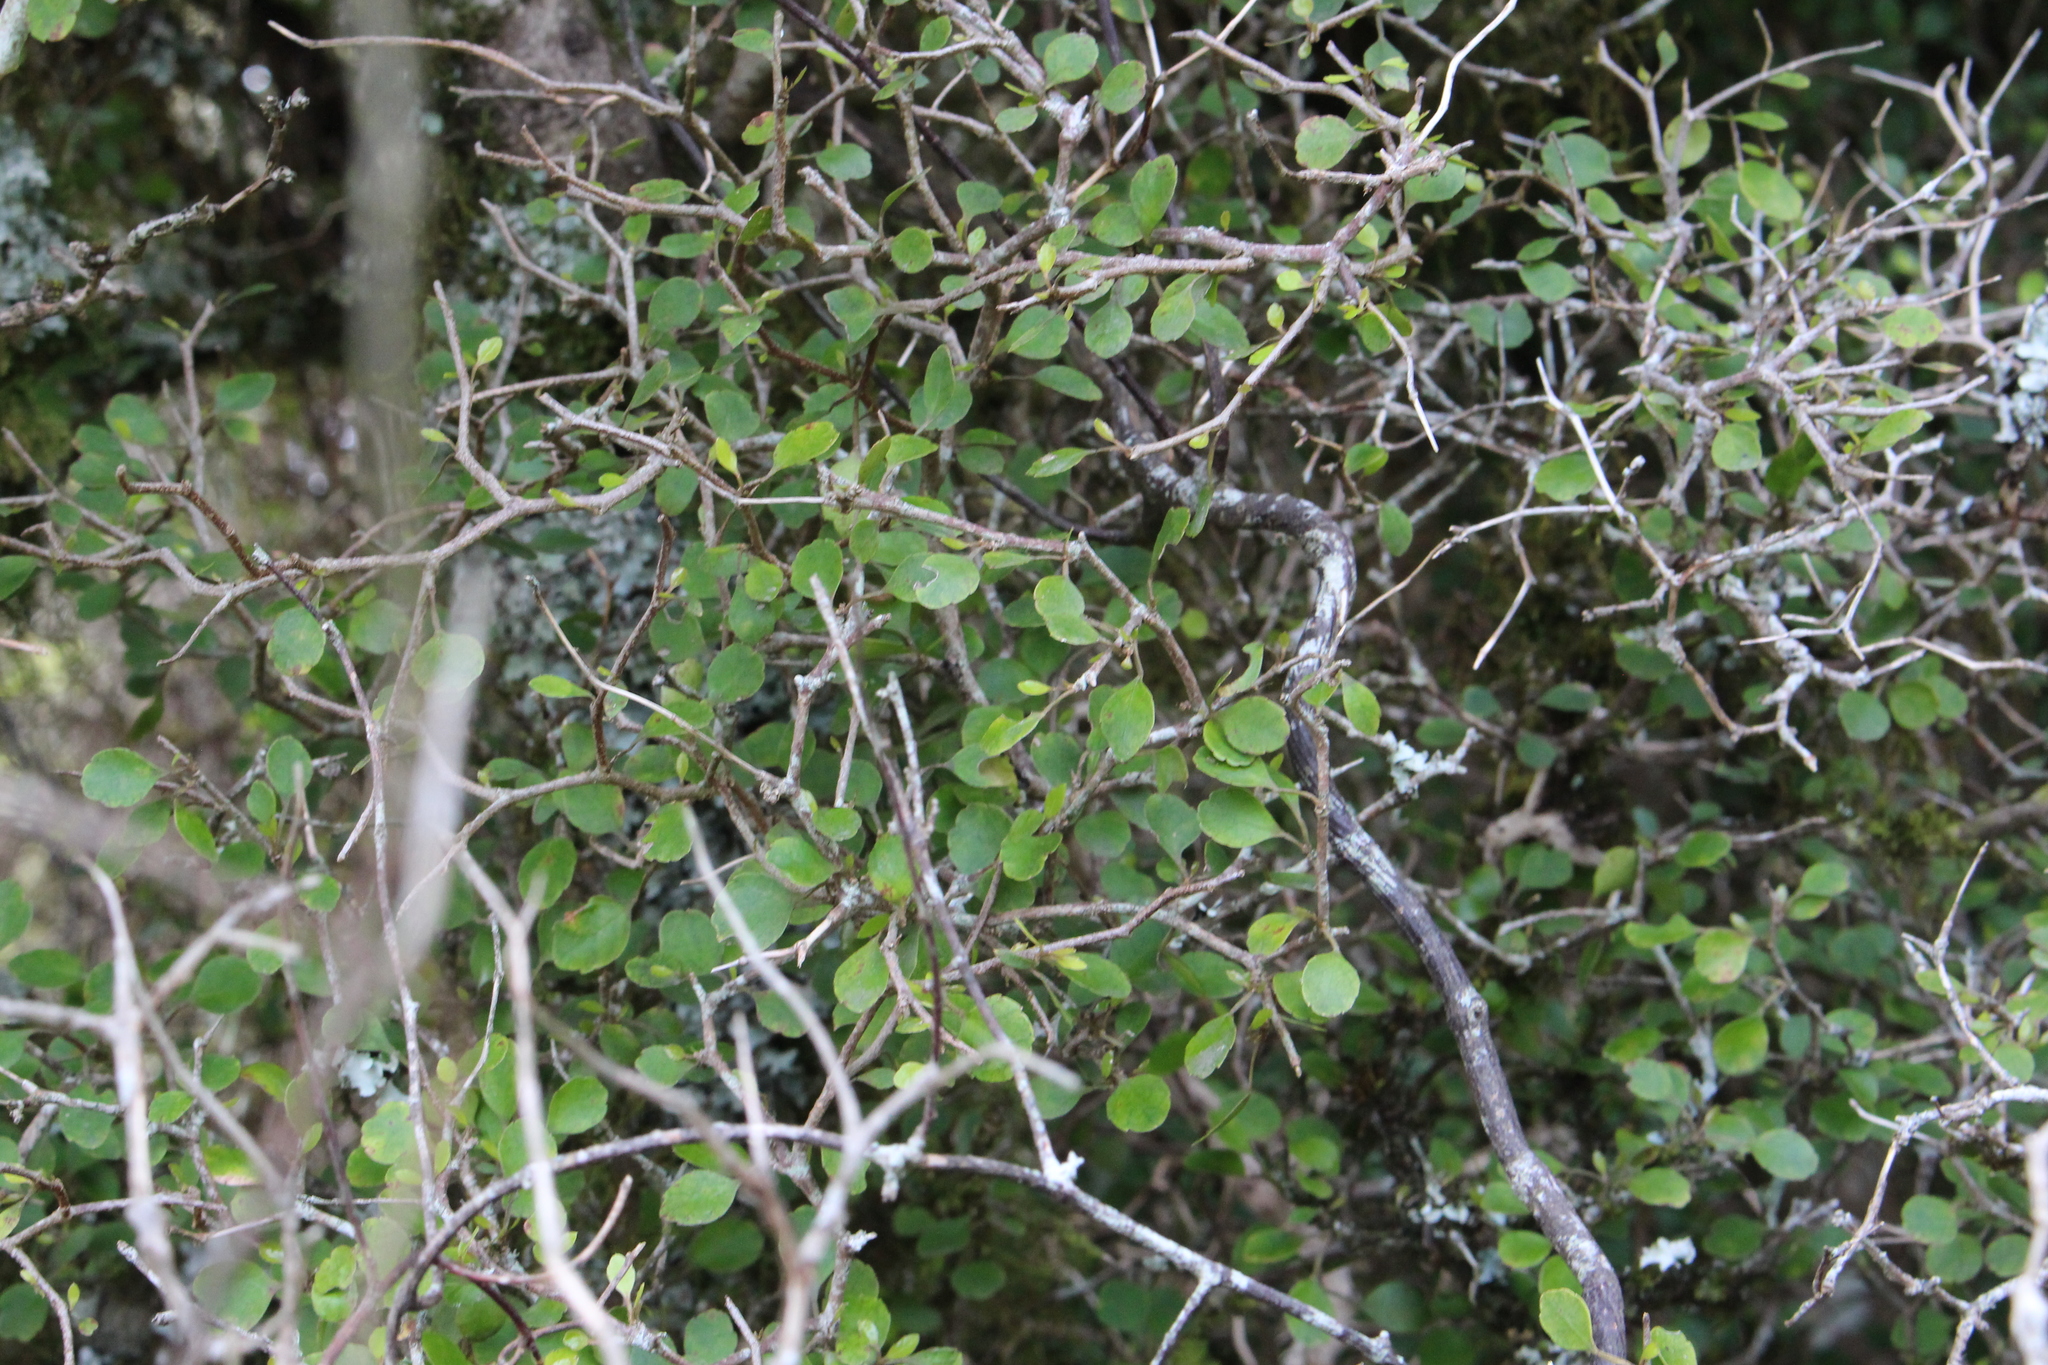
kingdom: Plantae
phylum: Tracheophyta
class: Magnoliopsida
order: Apiales
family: Araliaceae
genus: Raukaua
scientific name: Raukaua anomalus
